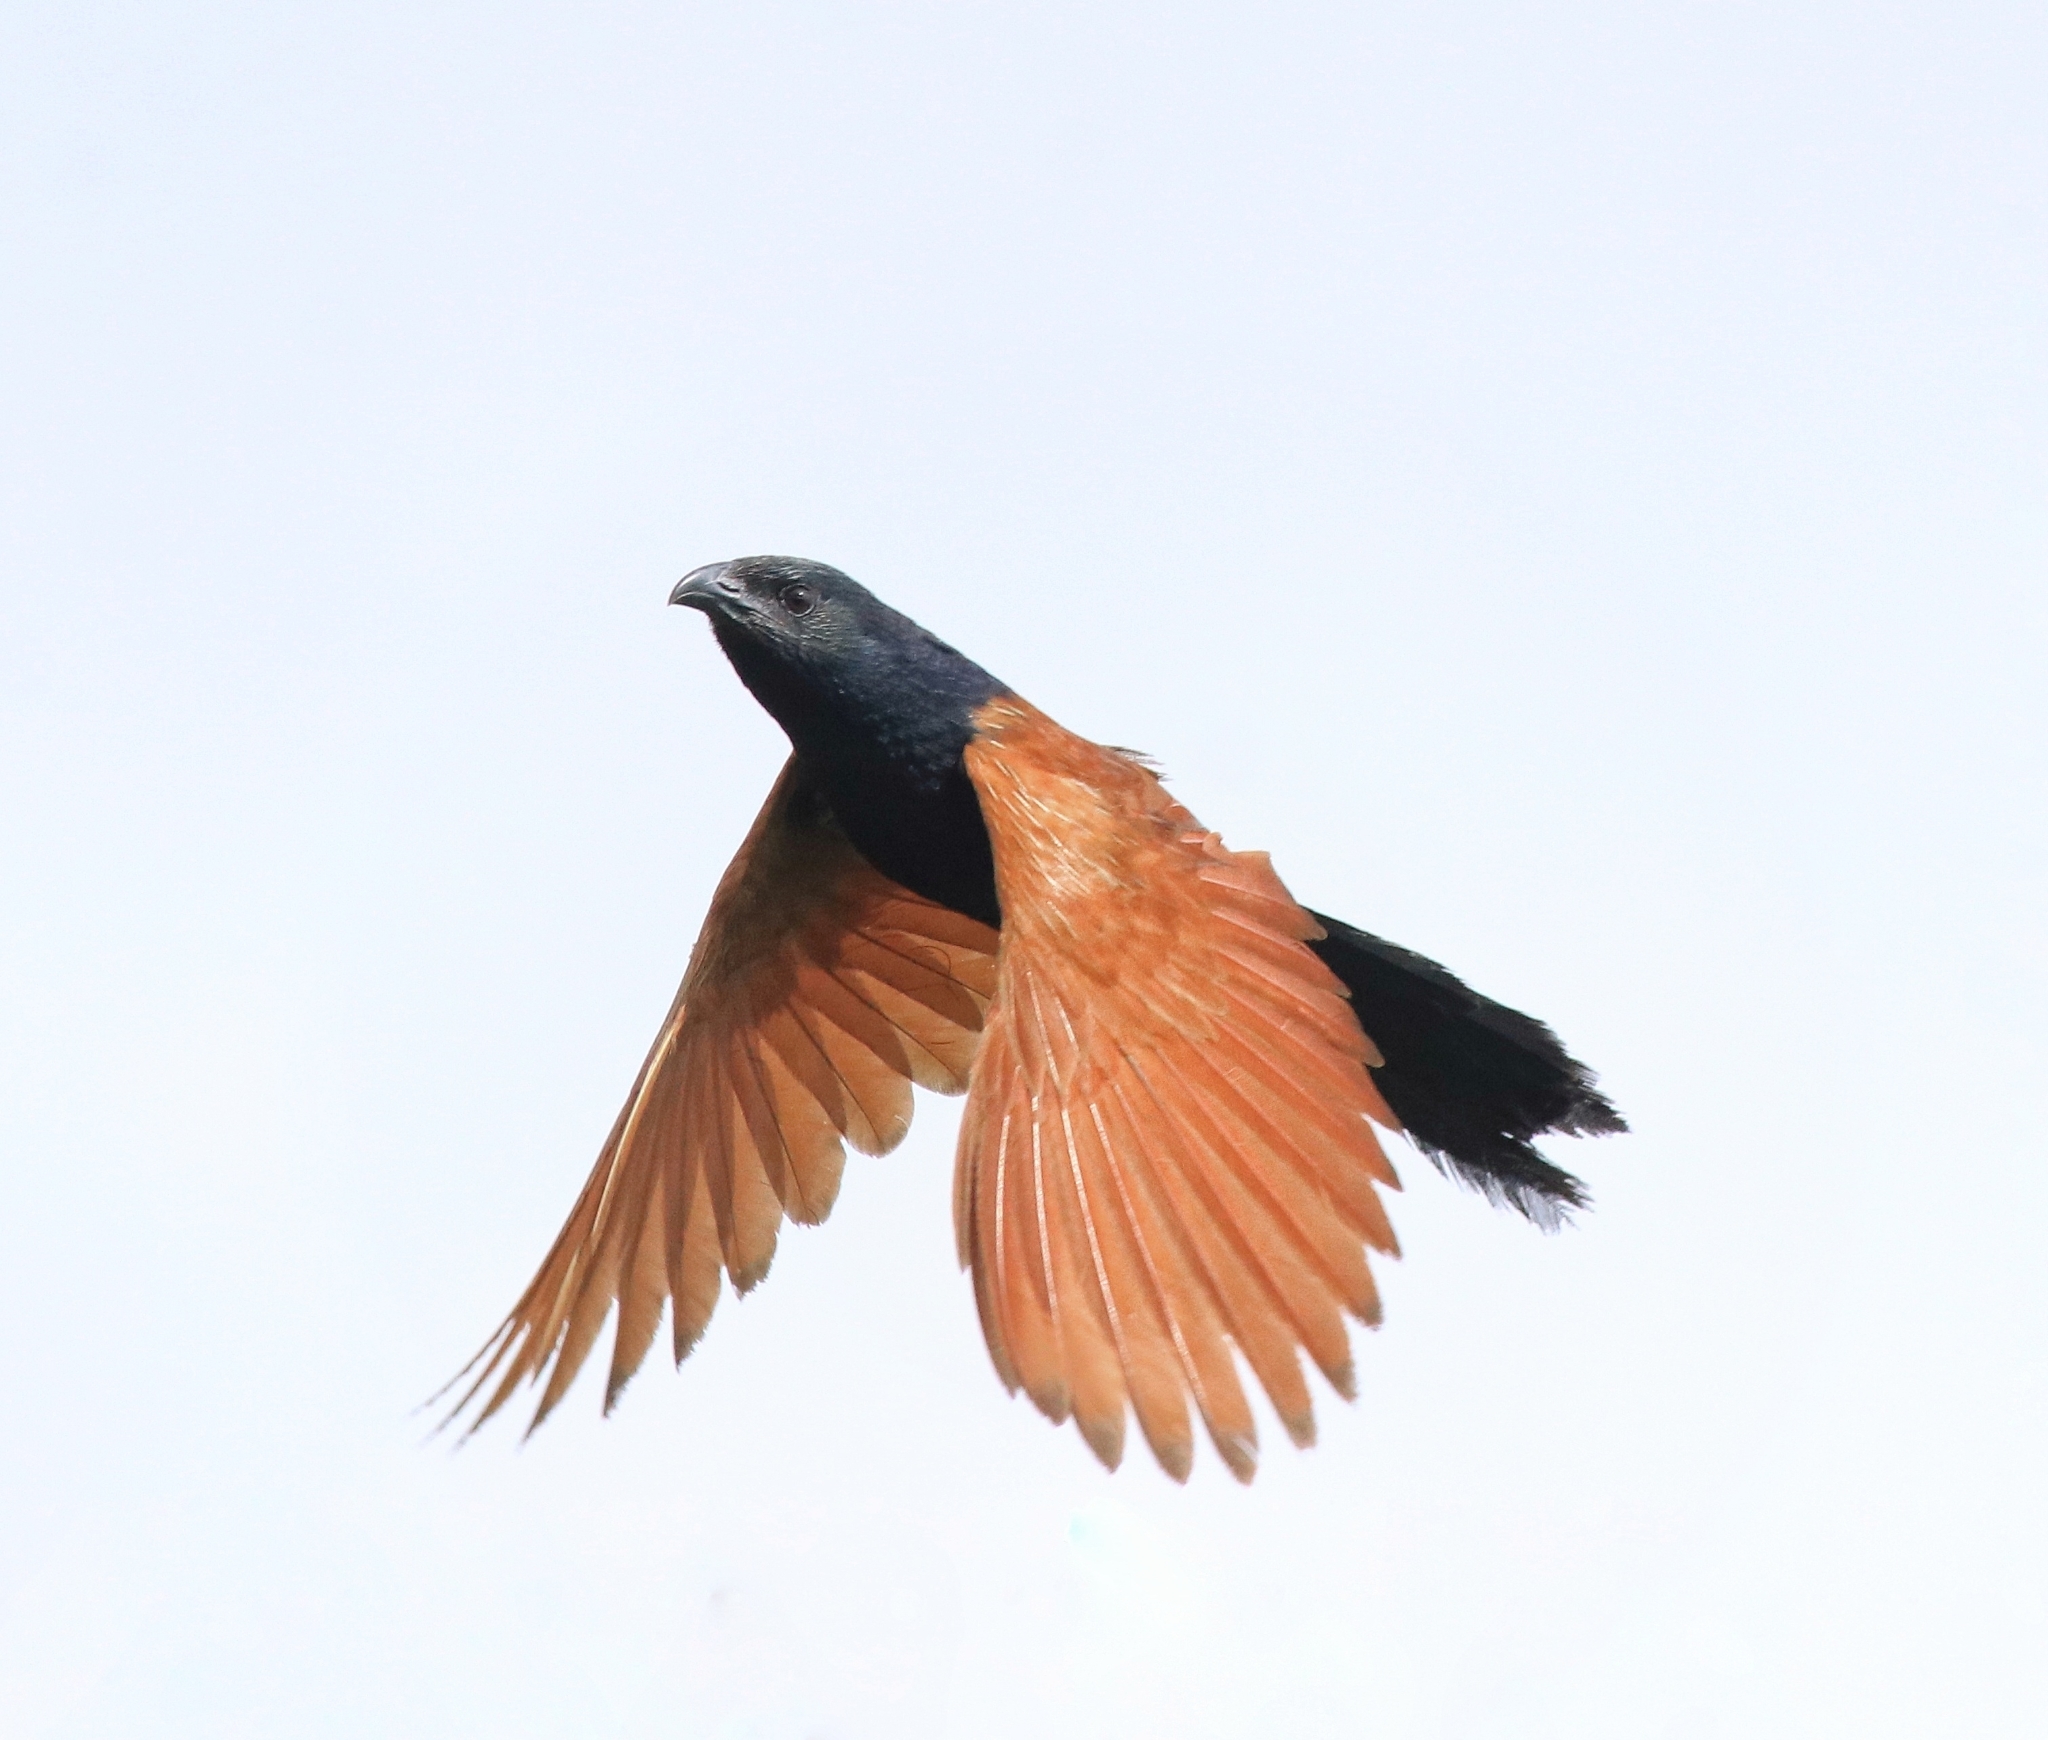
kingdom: Animalia
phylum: Chordata
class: Aves
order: Cuculiformes
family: Cuculidae
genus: Centropus
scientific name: Centropus bengalensis
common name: Lesser coucal
